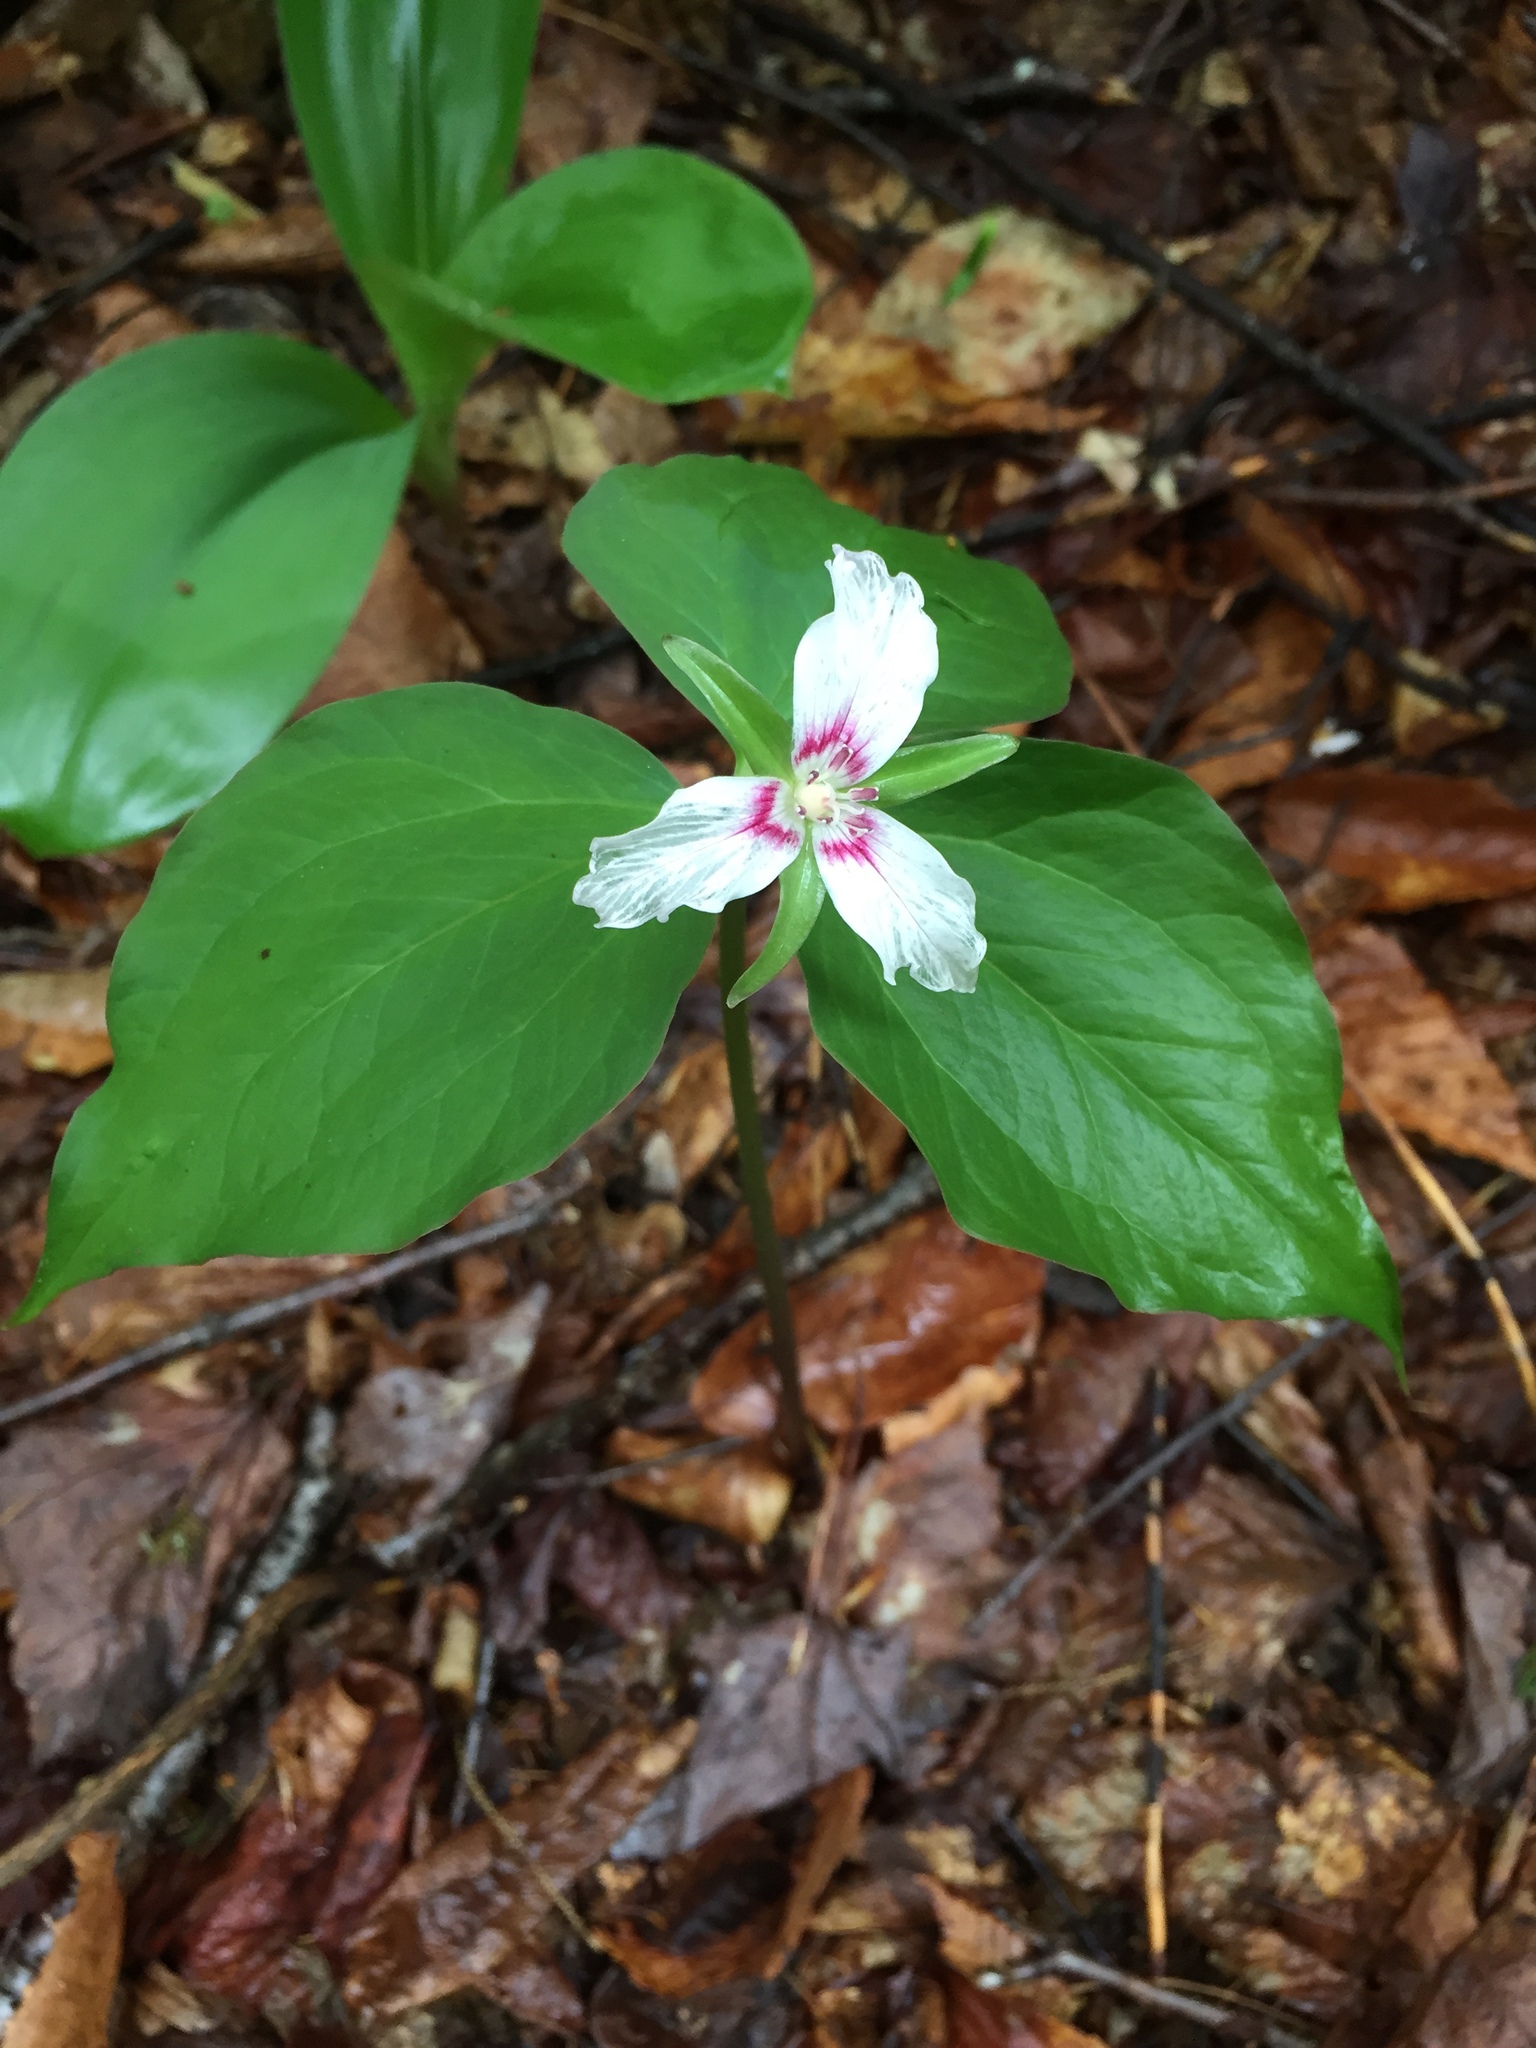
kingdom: Plantae
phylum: Tracheophyta
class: Liliopsida
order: Liliales
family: Melanthiaceae
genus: Trillium
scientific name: Trillium undulatum
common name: Paint trillium
